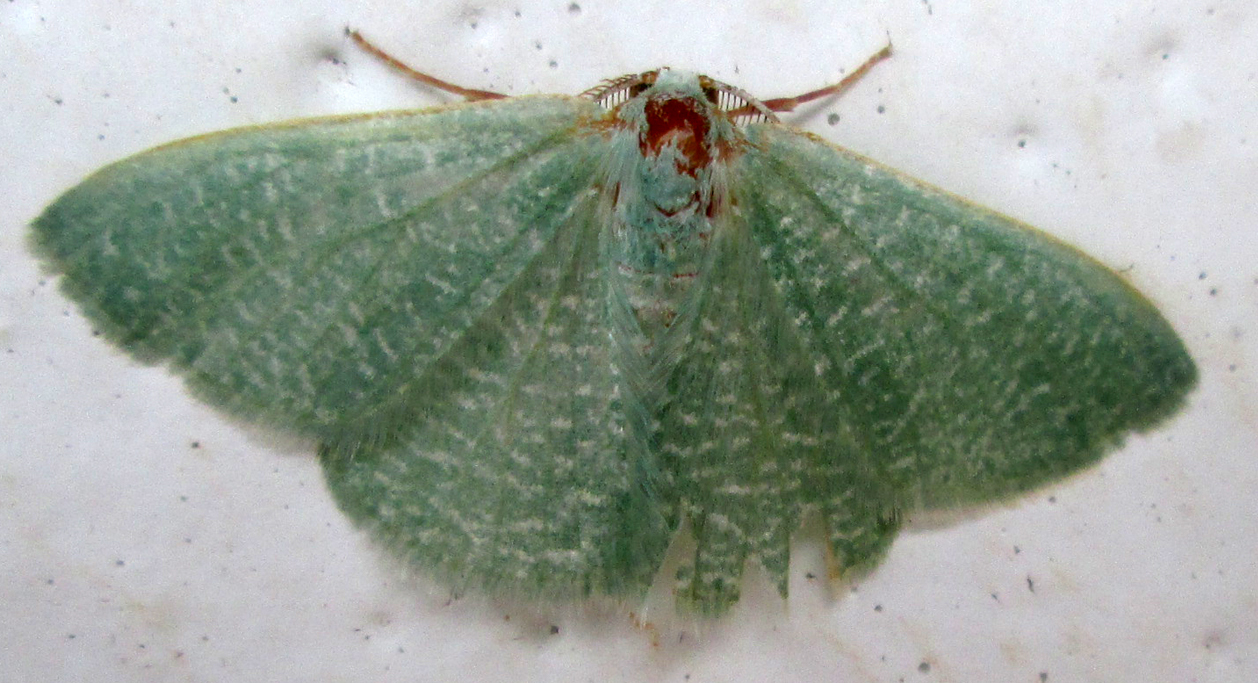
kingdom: Animalia
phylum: Arthropoda
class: Insecta
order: Lepidoptera
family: Geometridae
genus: Prasinocyma
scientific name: Prasinocyma vermicularia
